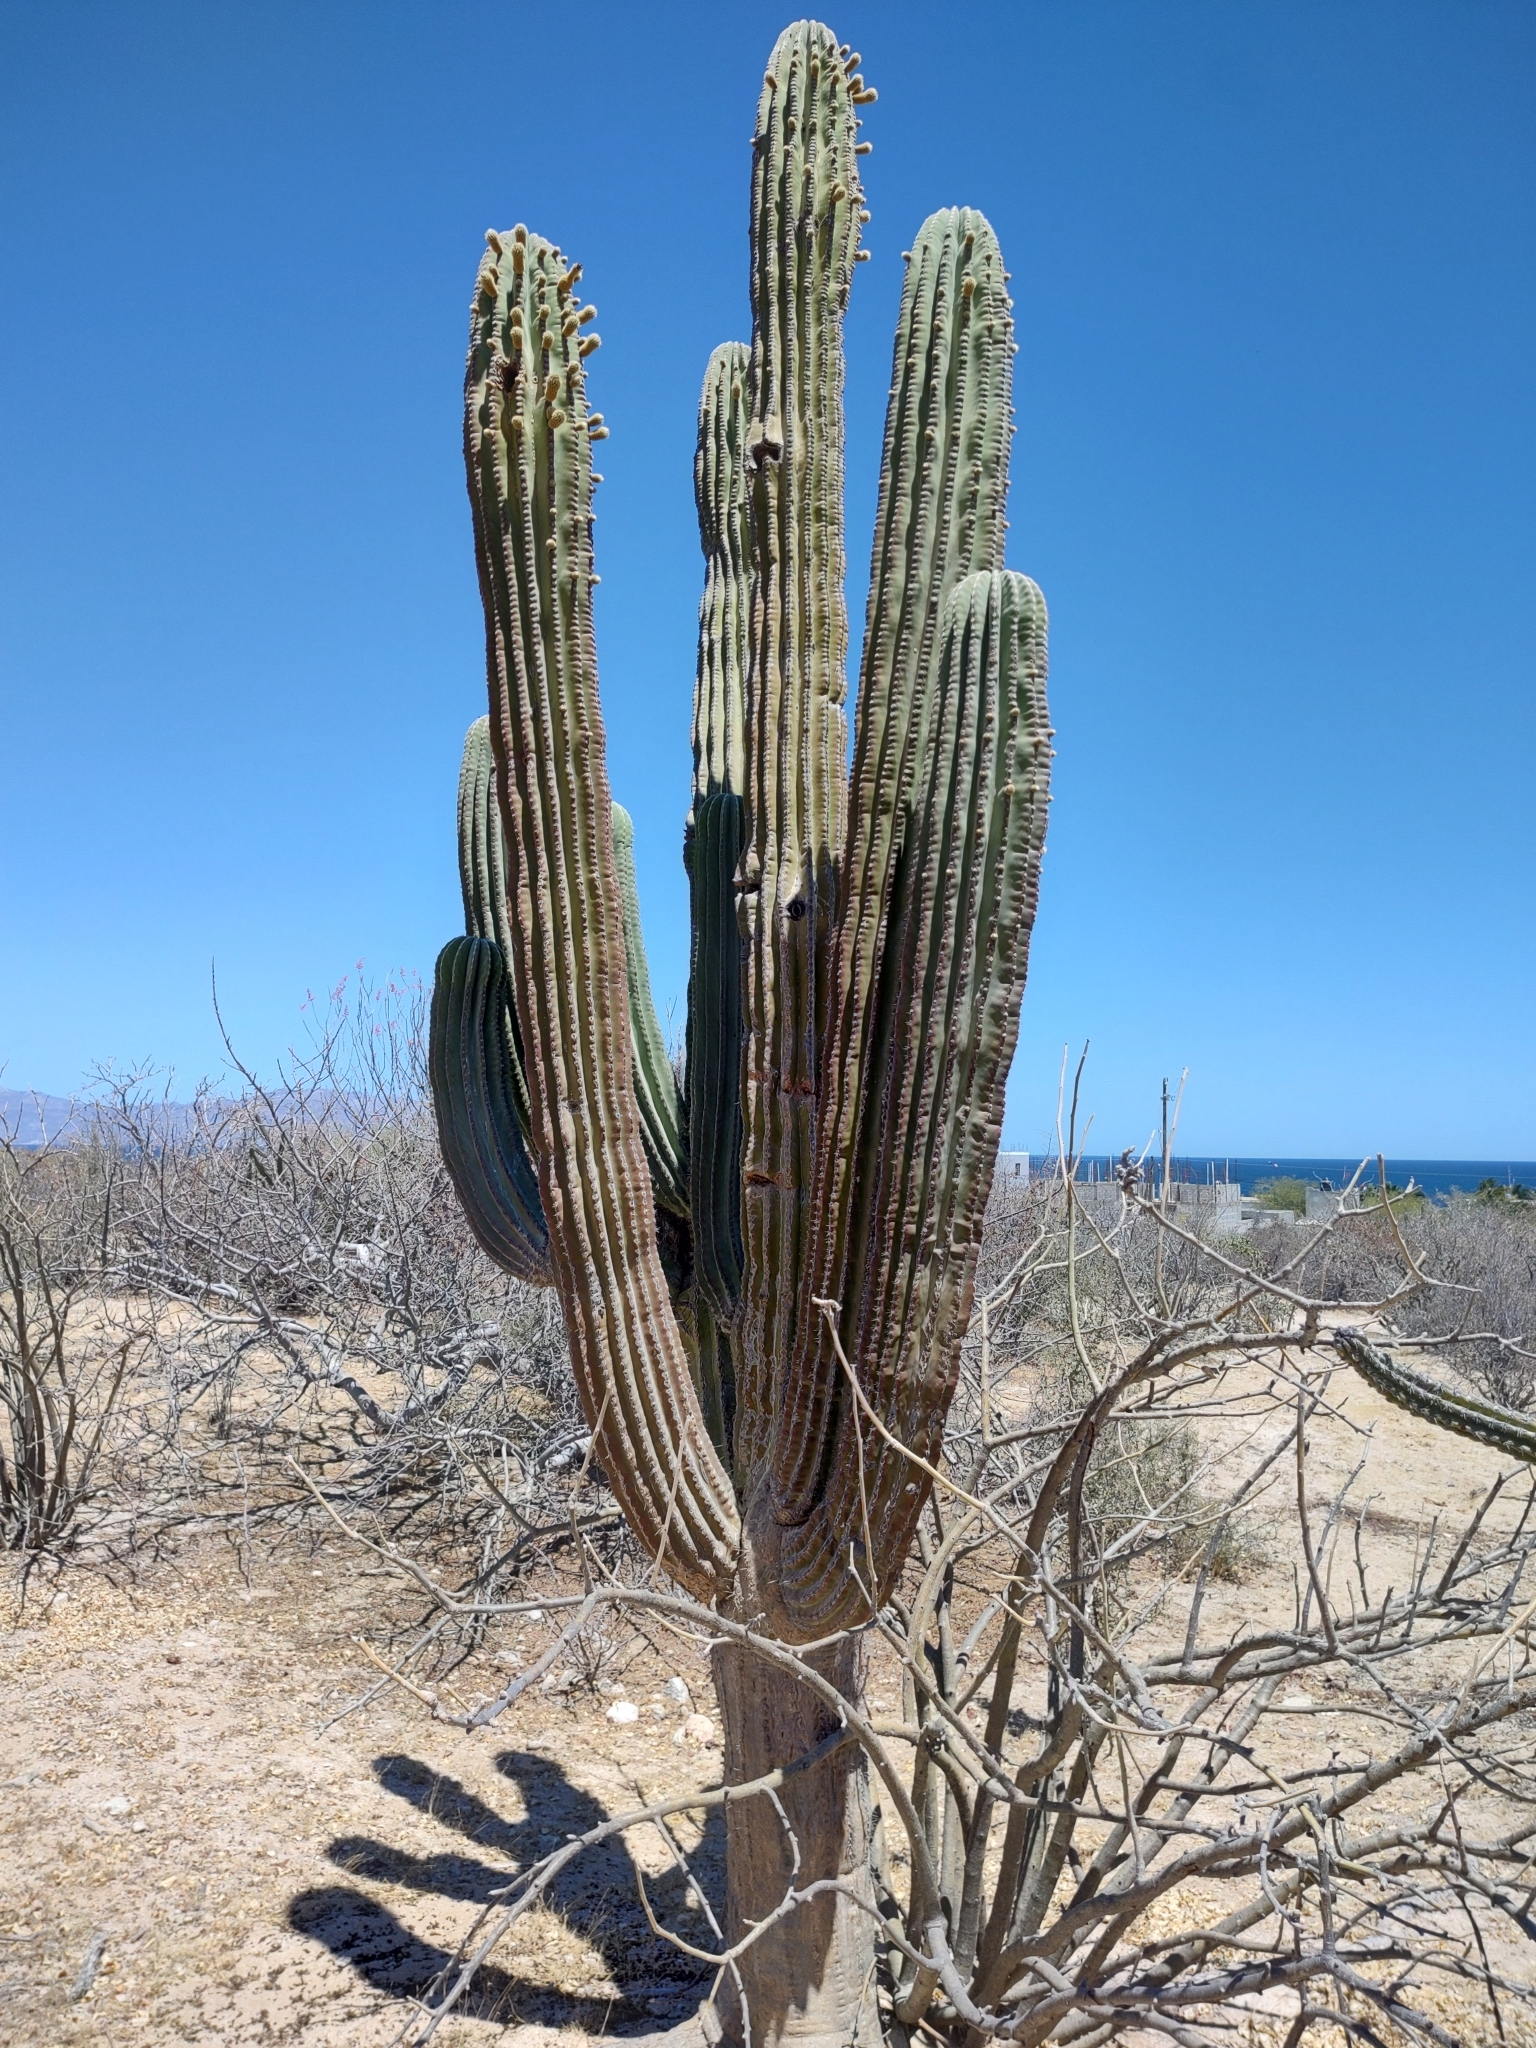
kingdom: Plantae
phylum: Tracheophyta
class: Magnoliopsida
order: Caryophyllales
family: Cactaceae
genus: Pachycereus
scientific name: Pachycereus pringlei
